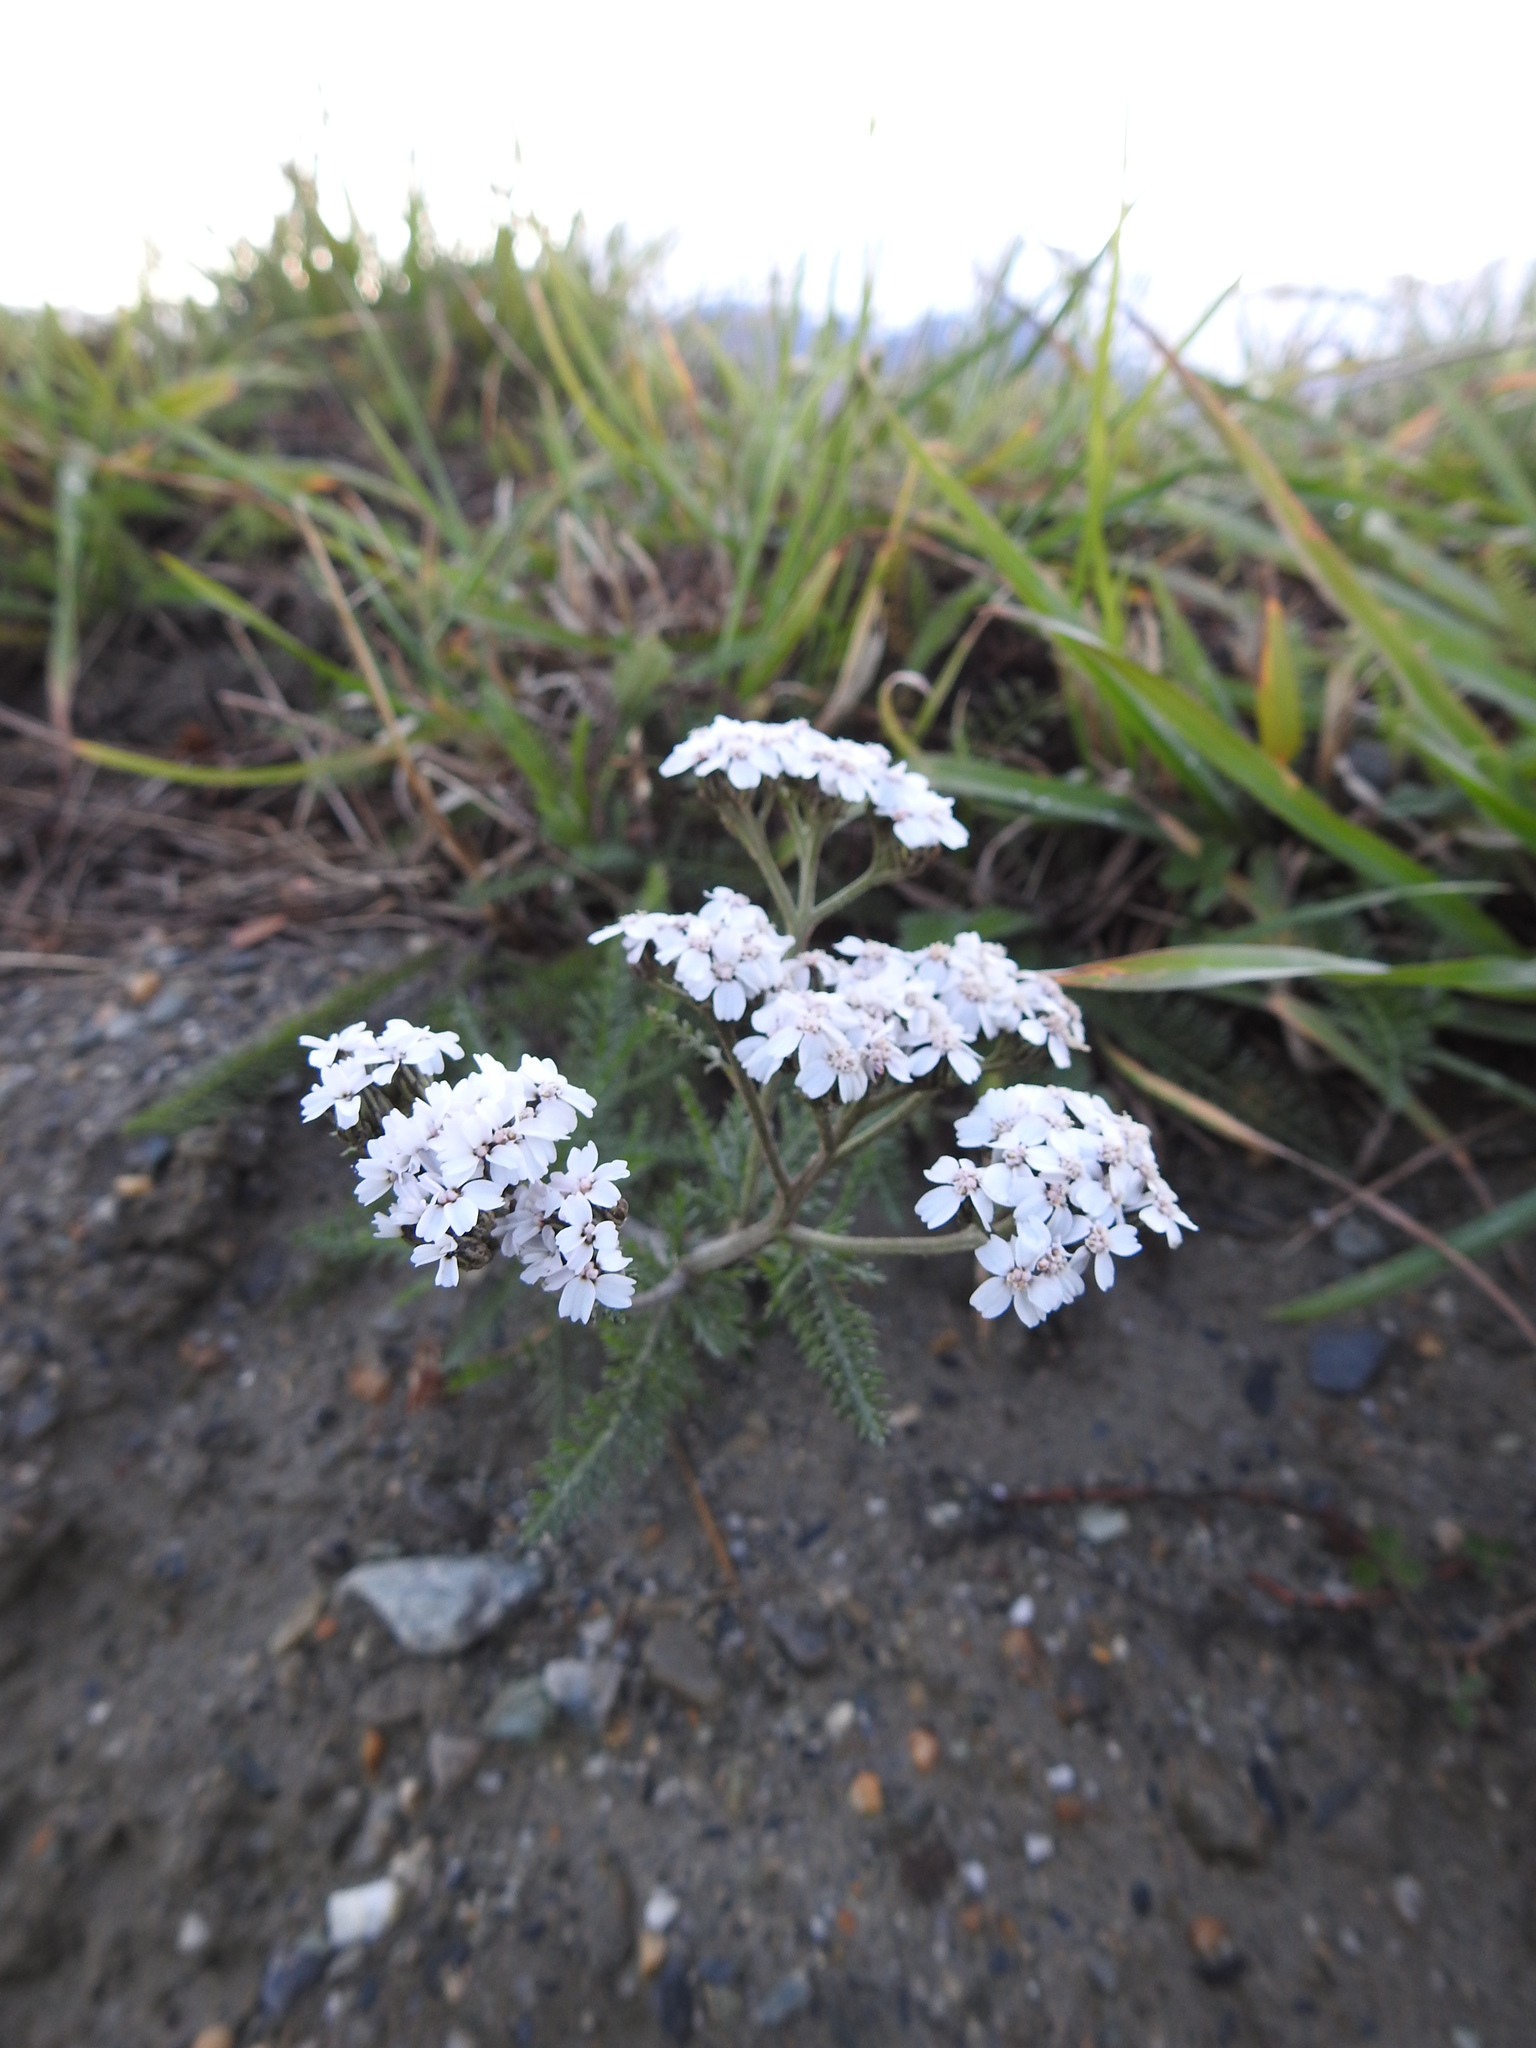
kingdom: Plantae
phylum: Tracheophyta
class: Magnoliopsida
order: Asterales
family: Asteraceae
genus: Achillea
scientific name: Achillea millefolium
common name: Yarrow
